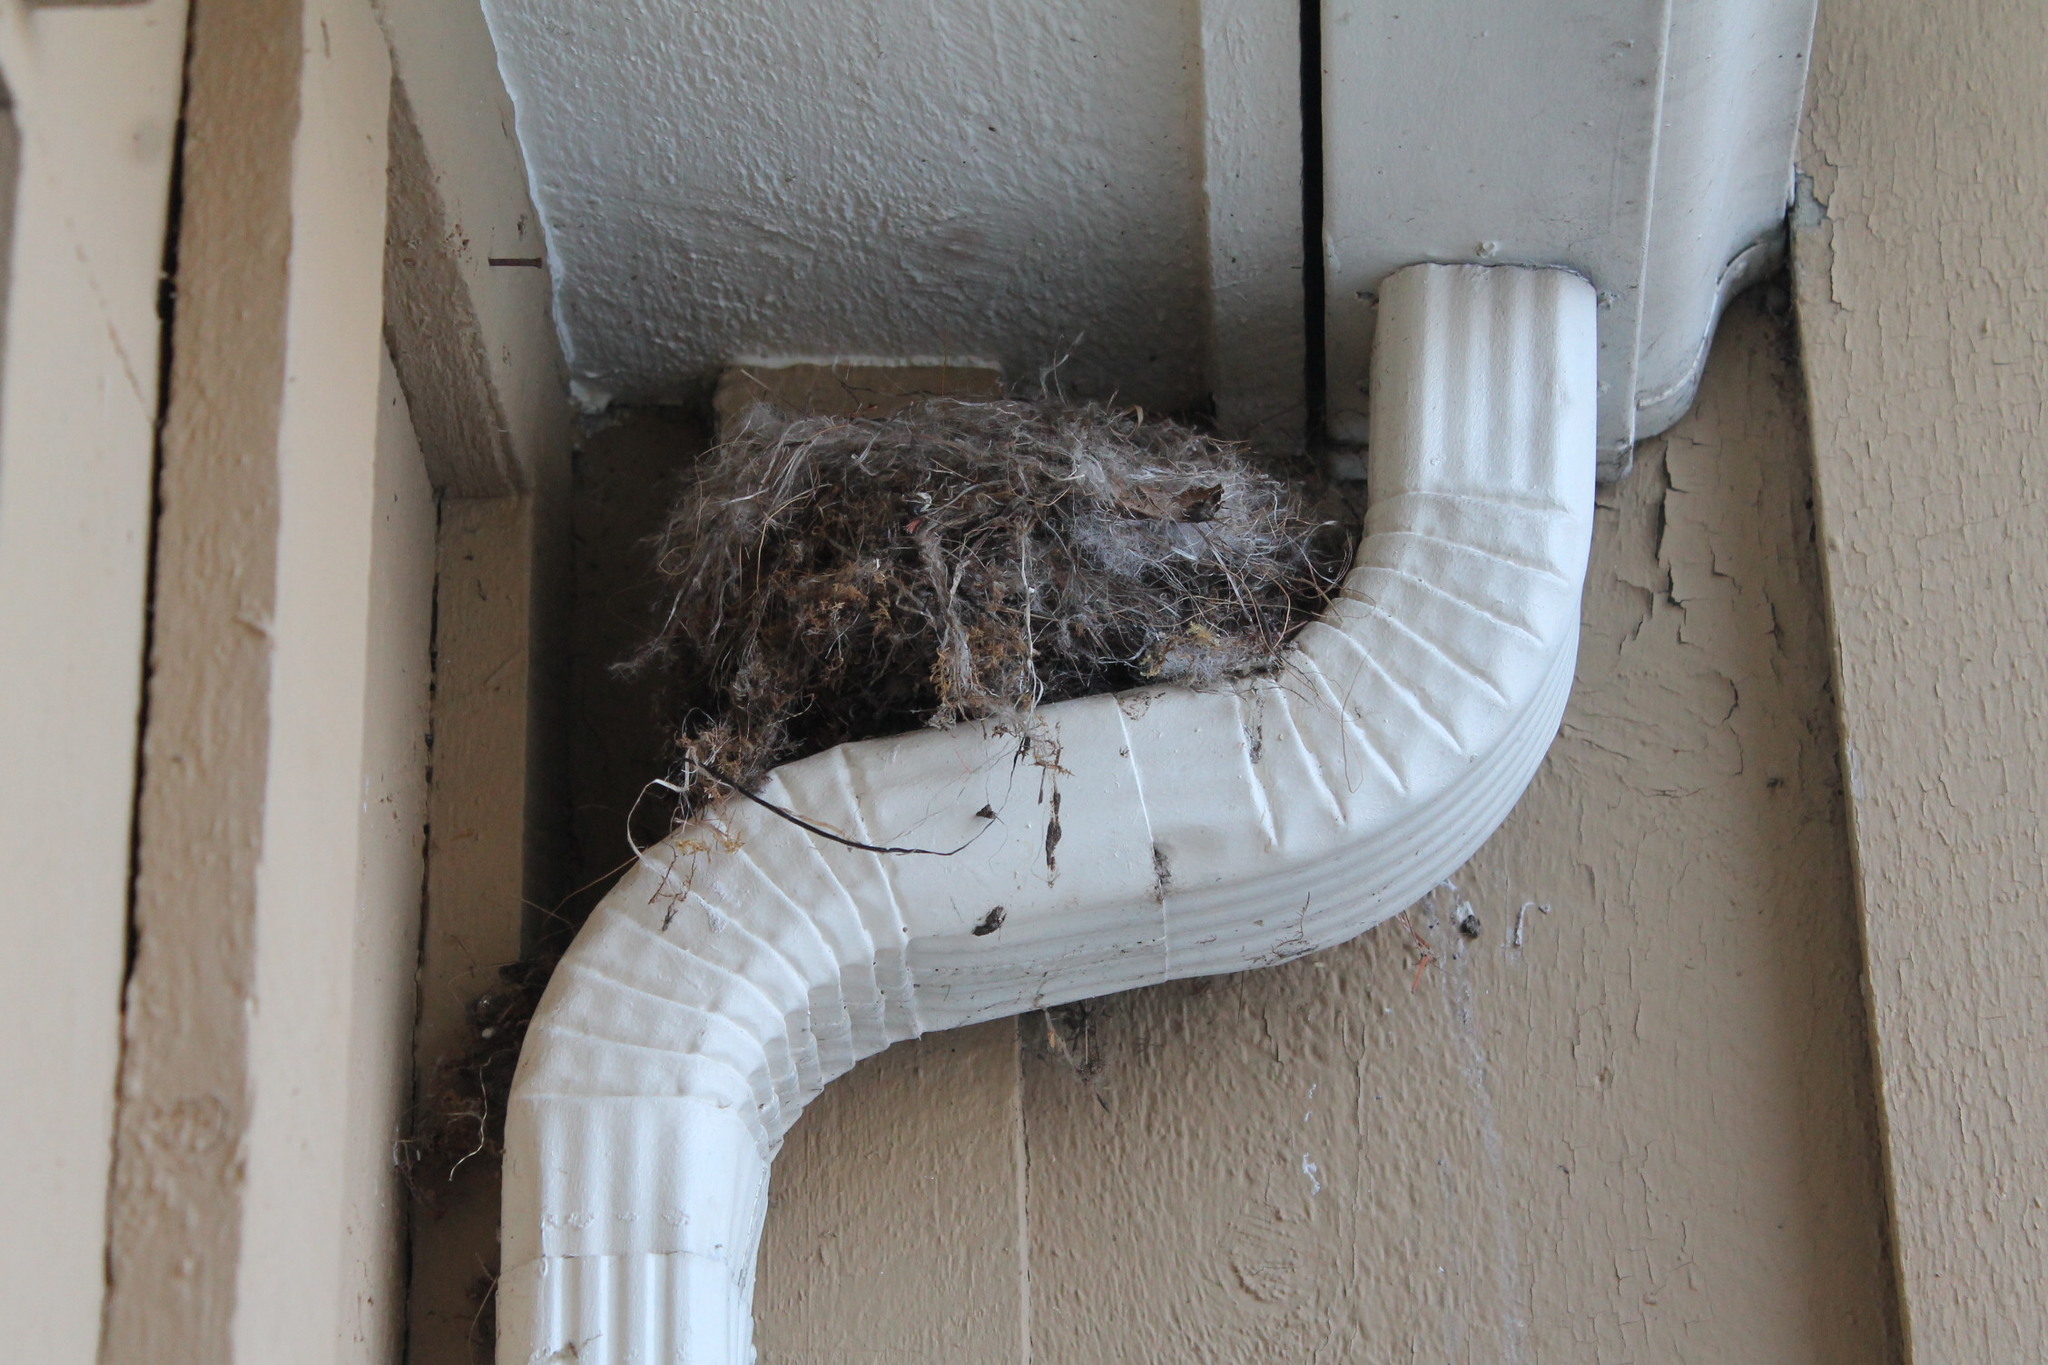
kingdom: Animalia
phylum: Chordata
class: Aves
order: Passeriformes
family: Tyrannidae
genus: Sayornis
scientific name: Sayornis phoebe
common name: Eastern phoebe
